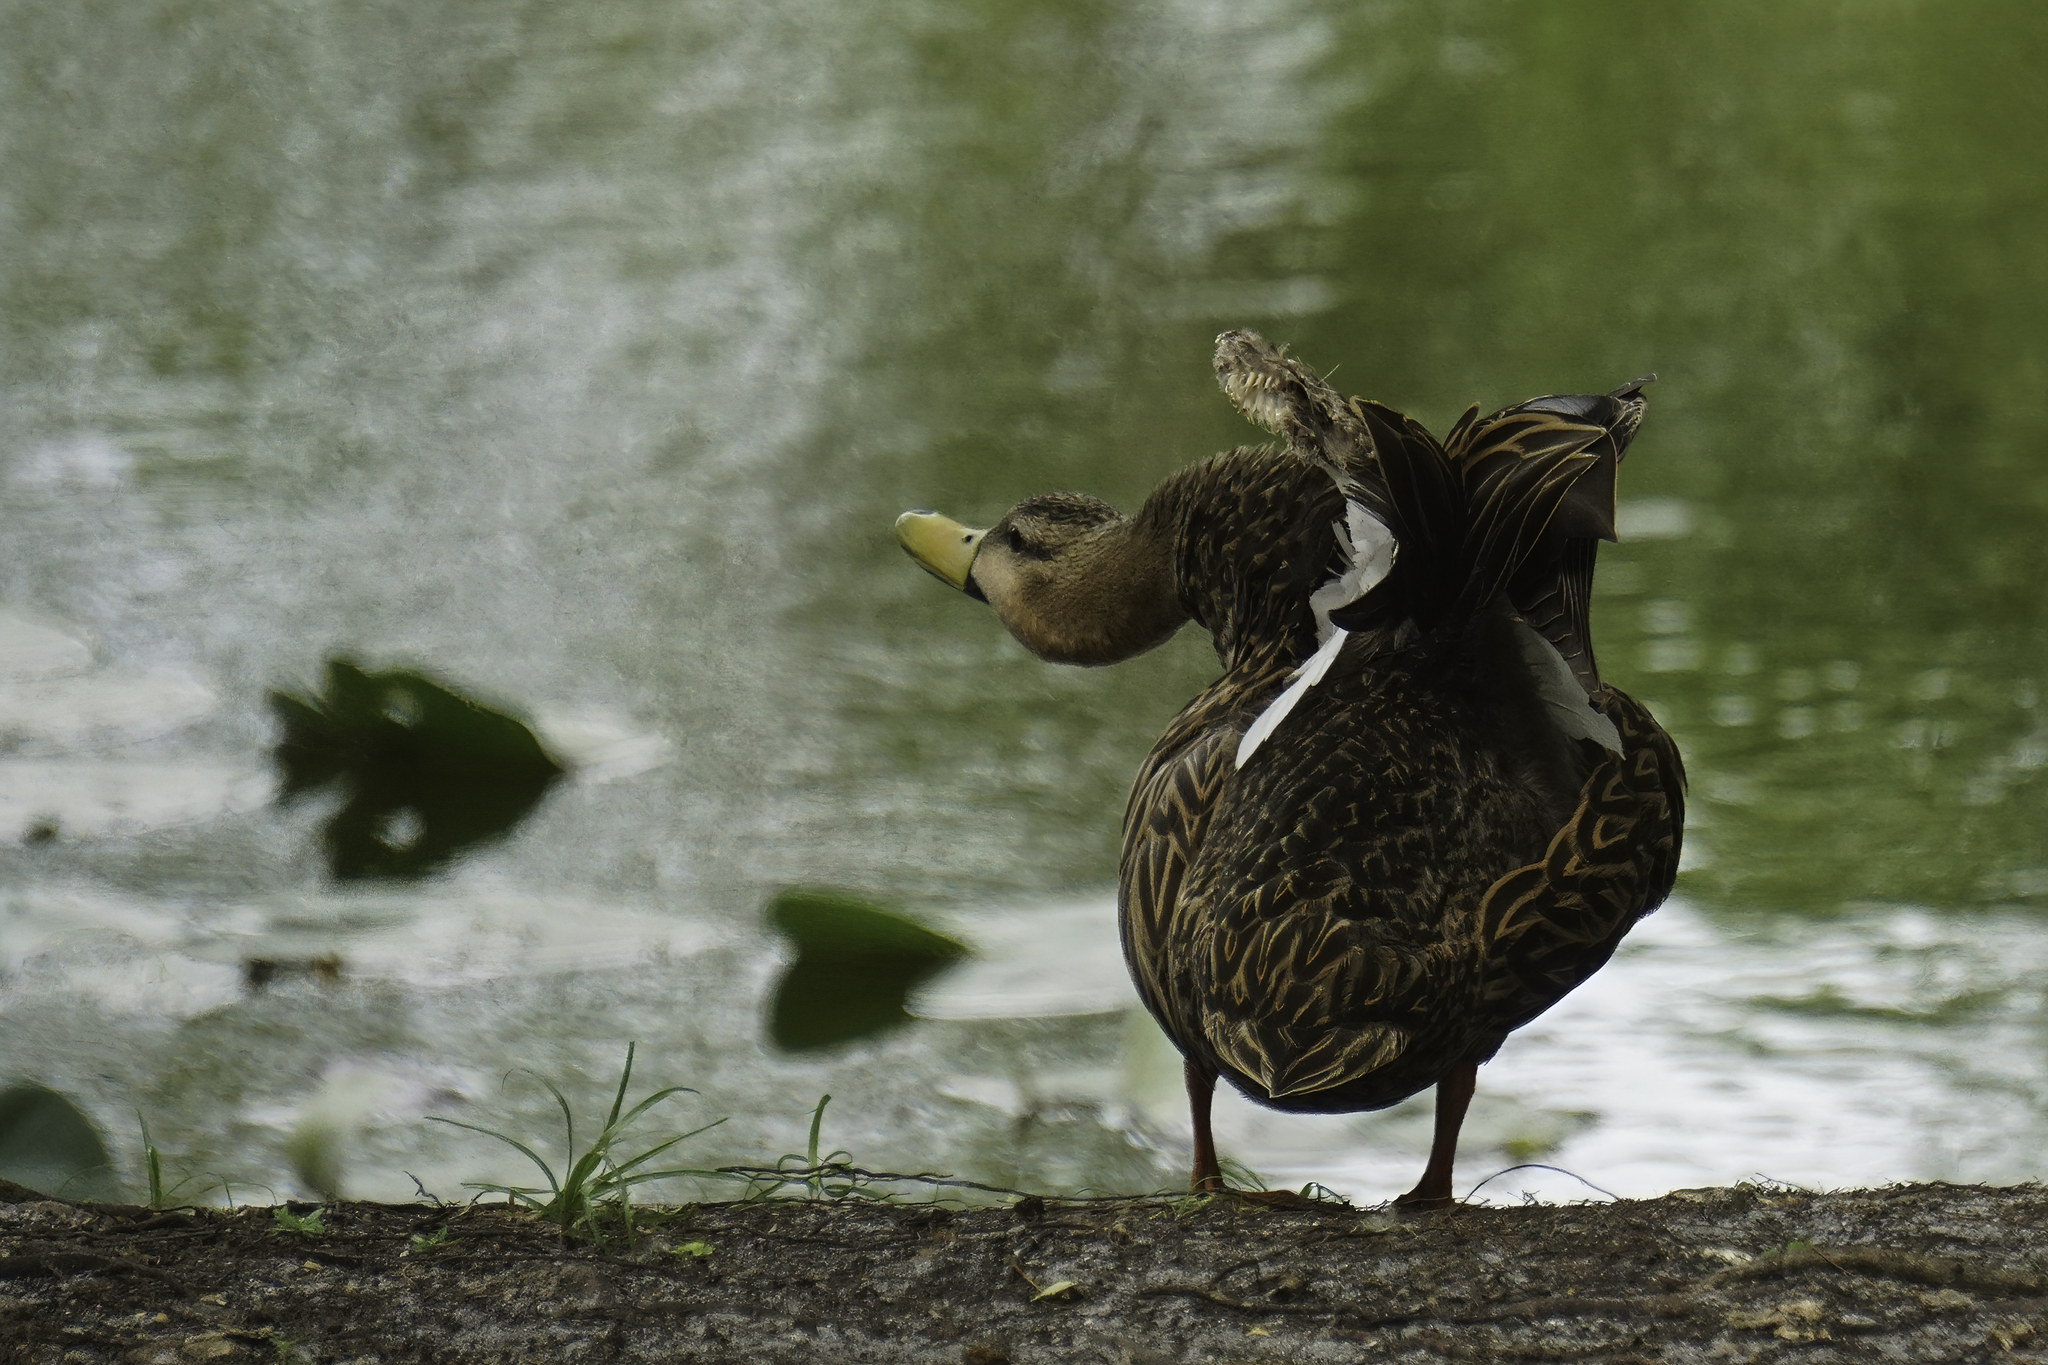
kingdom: Animalia
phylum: Chordata
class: Aves
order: Anseriformes
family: Anatidae
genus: Anas
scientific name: Anas fulvigula
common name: Mottled duck
